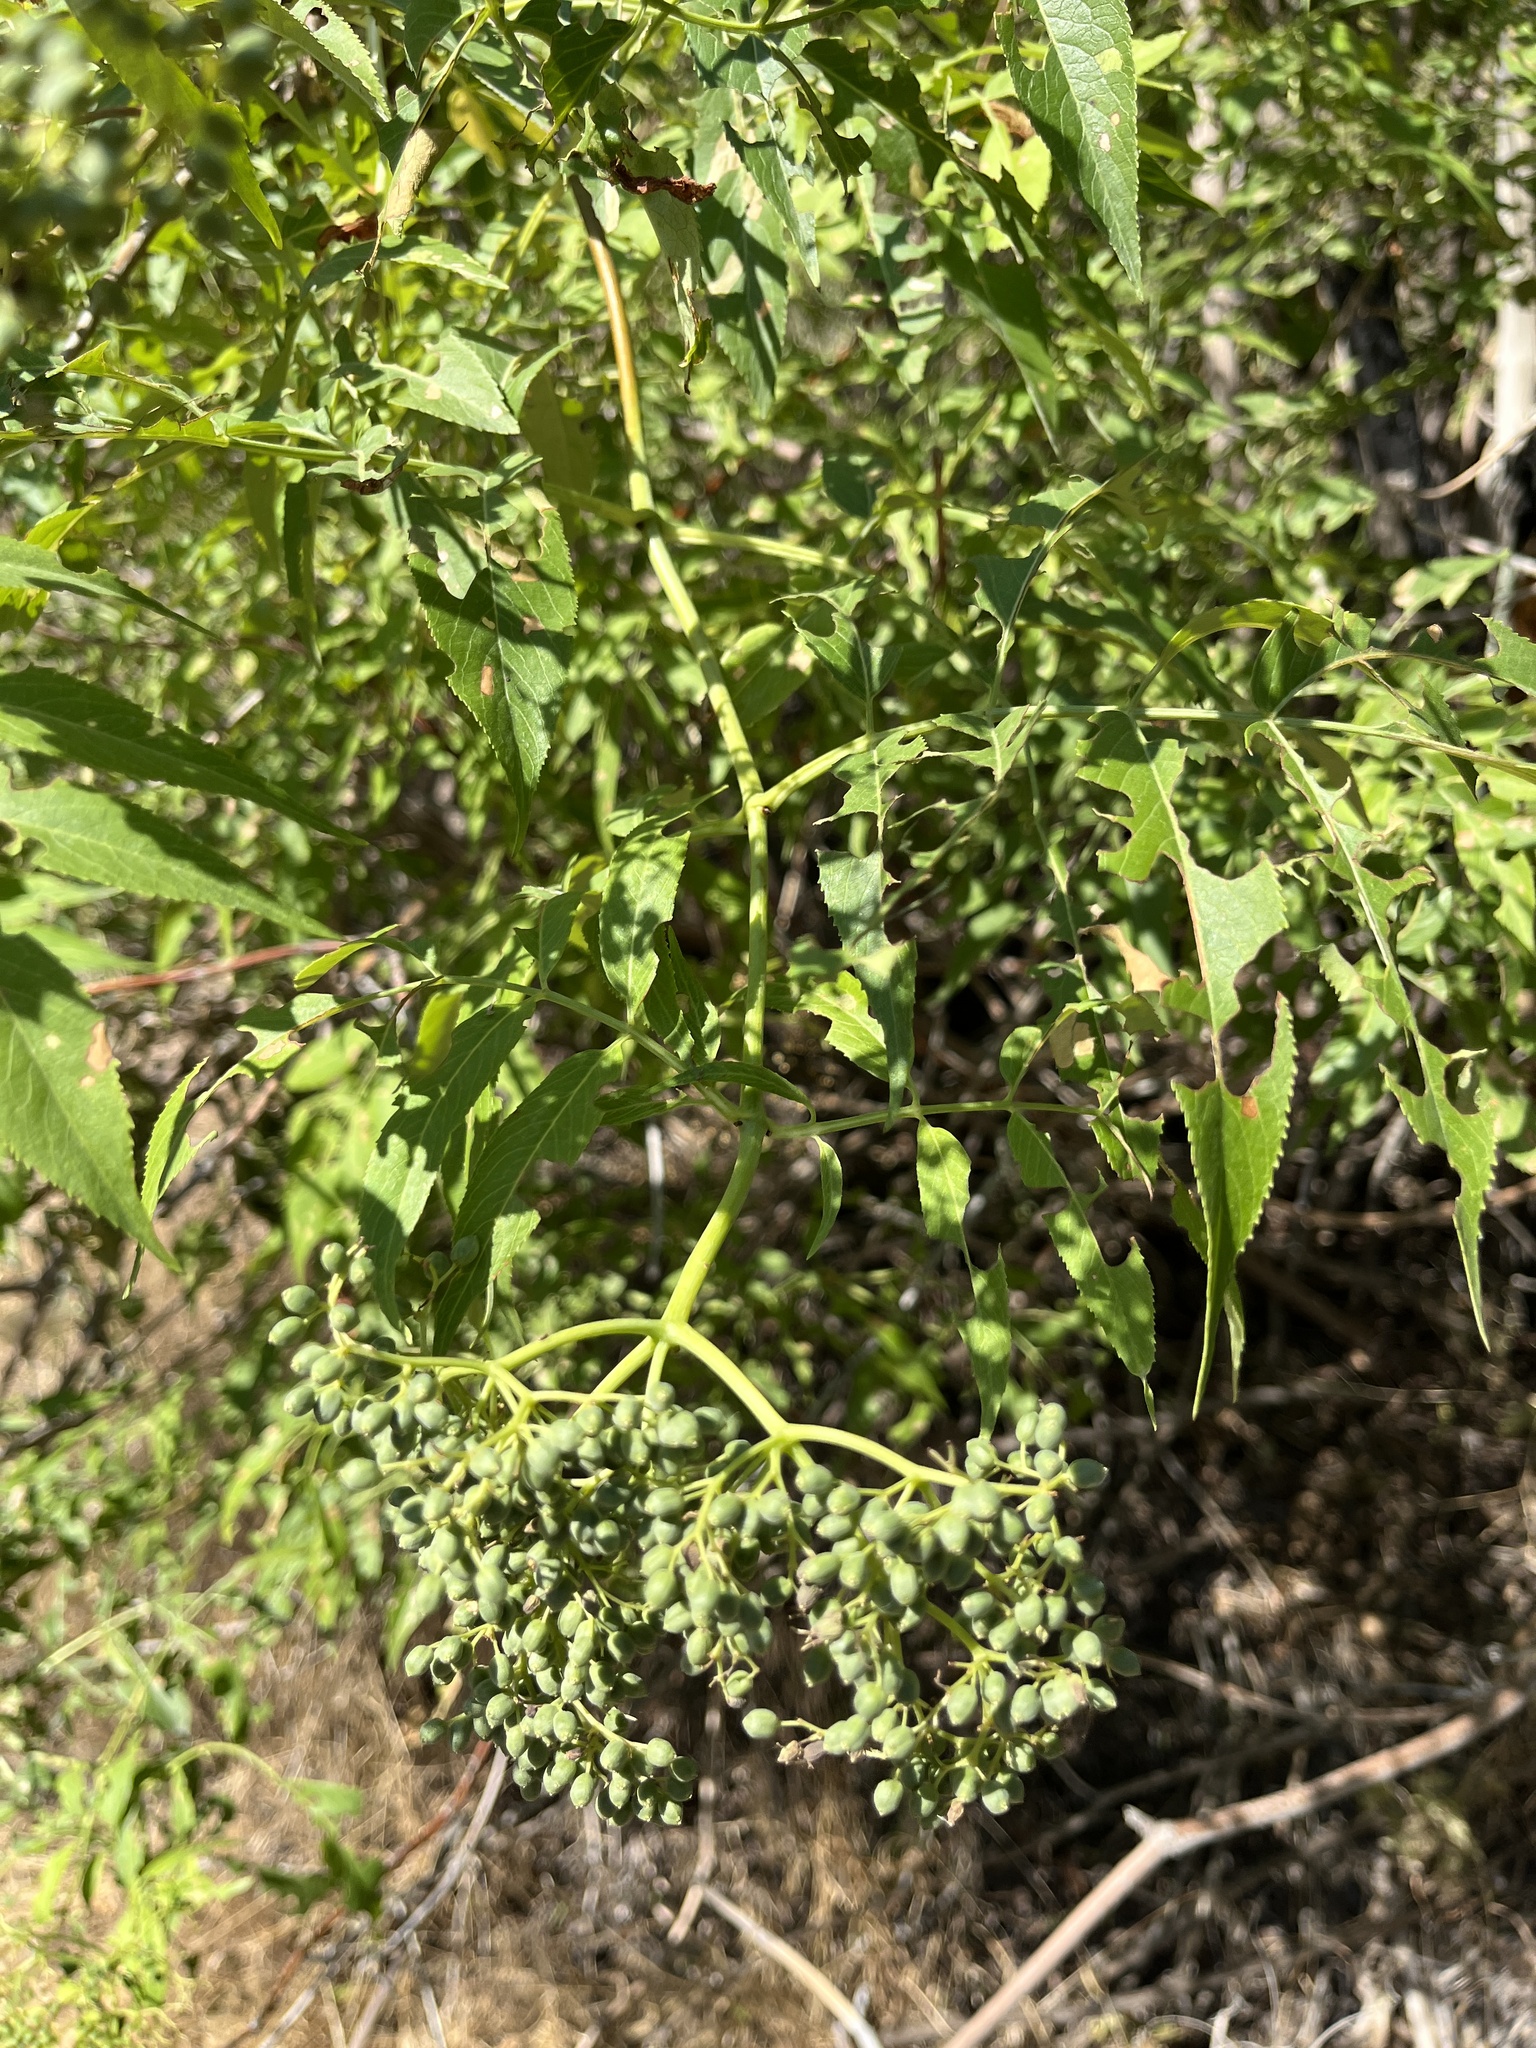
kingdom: Plantae
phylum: Tracheophyta
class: Magnoliopsida
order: Dipsacales
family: Viburnaceae
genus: Sambucus
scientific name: Sambucus cerulea
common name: Blue elder
